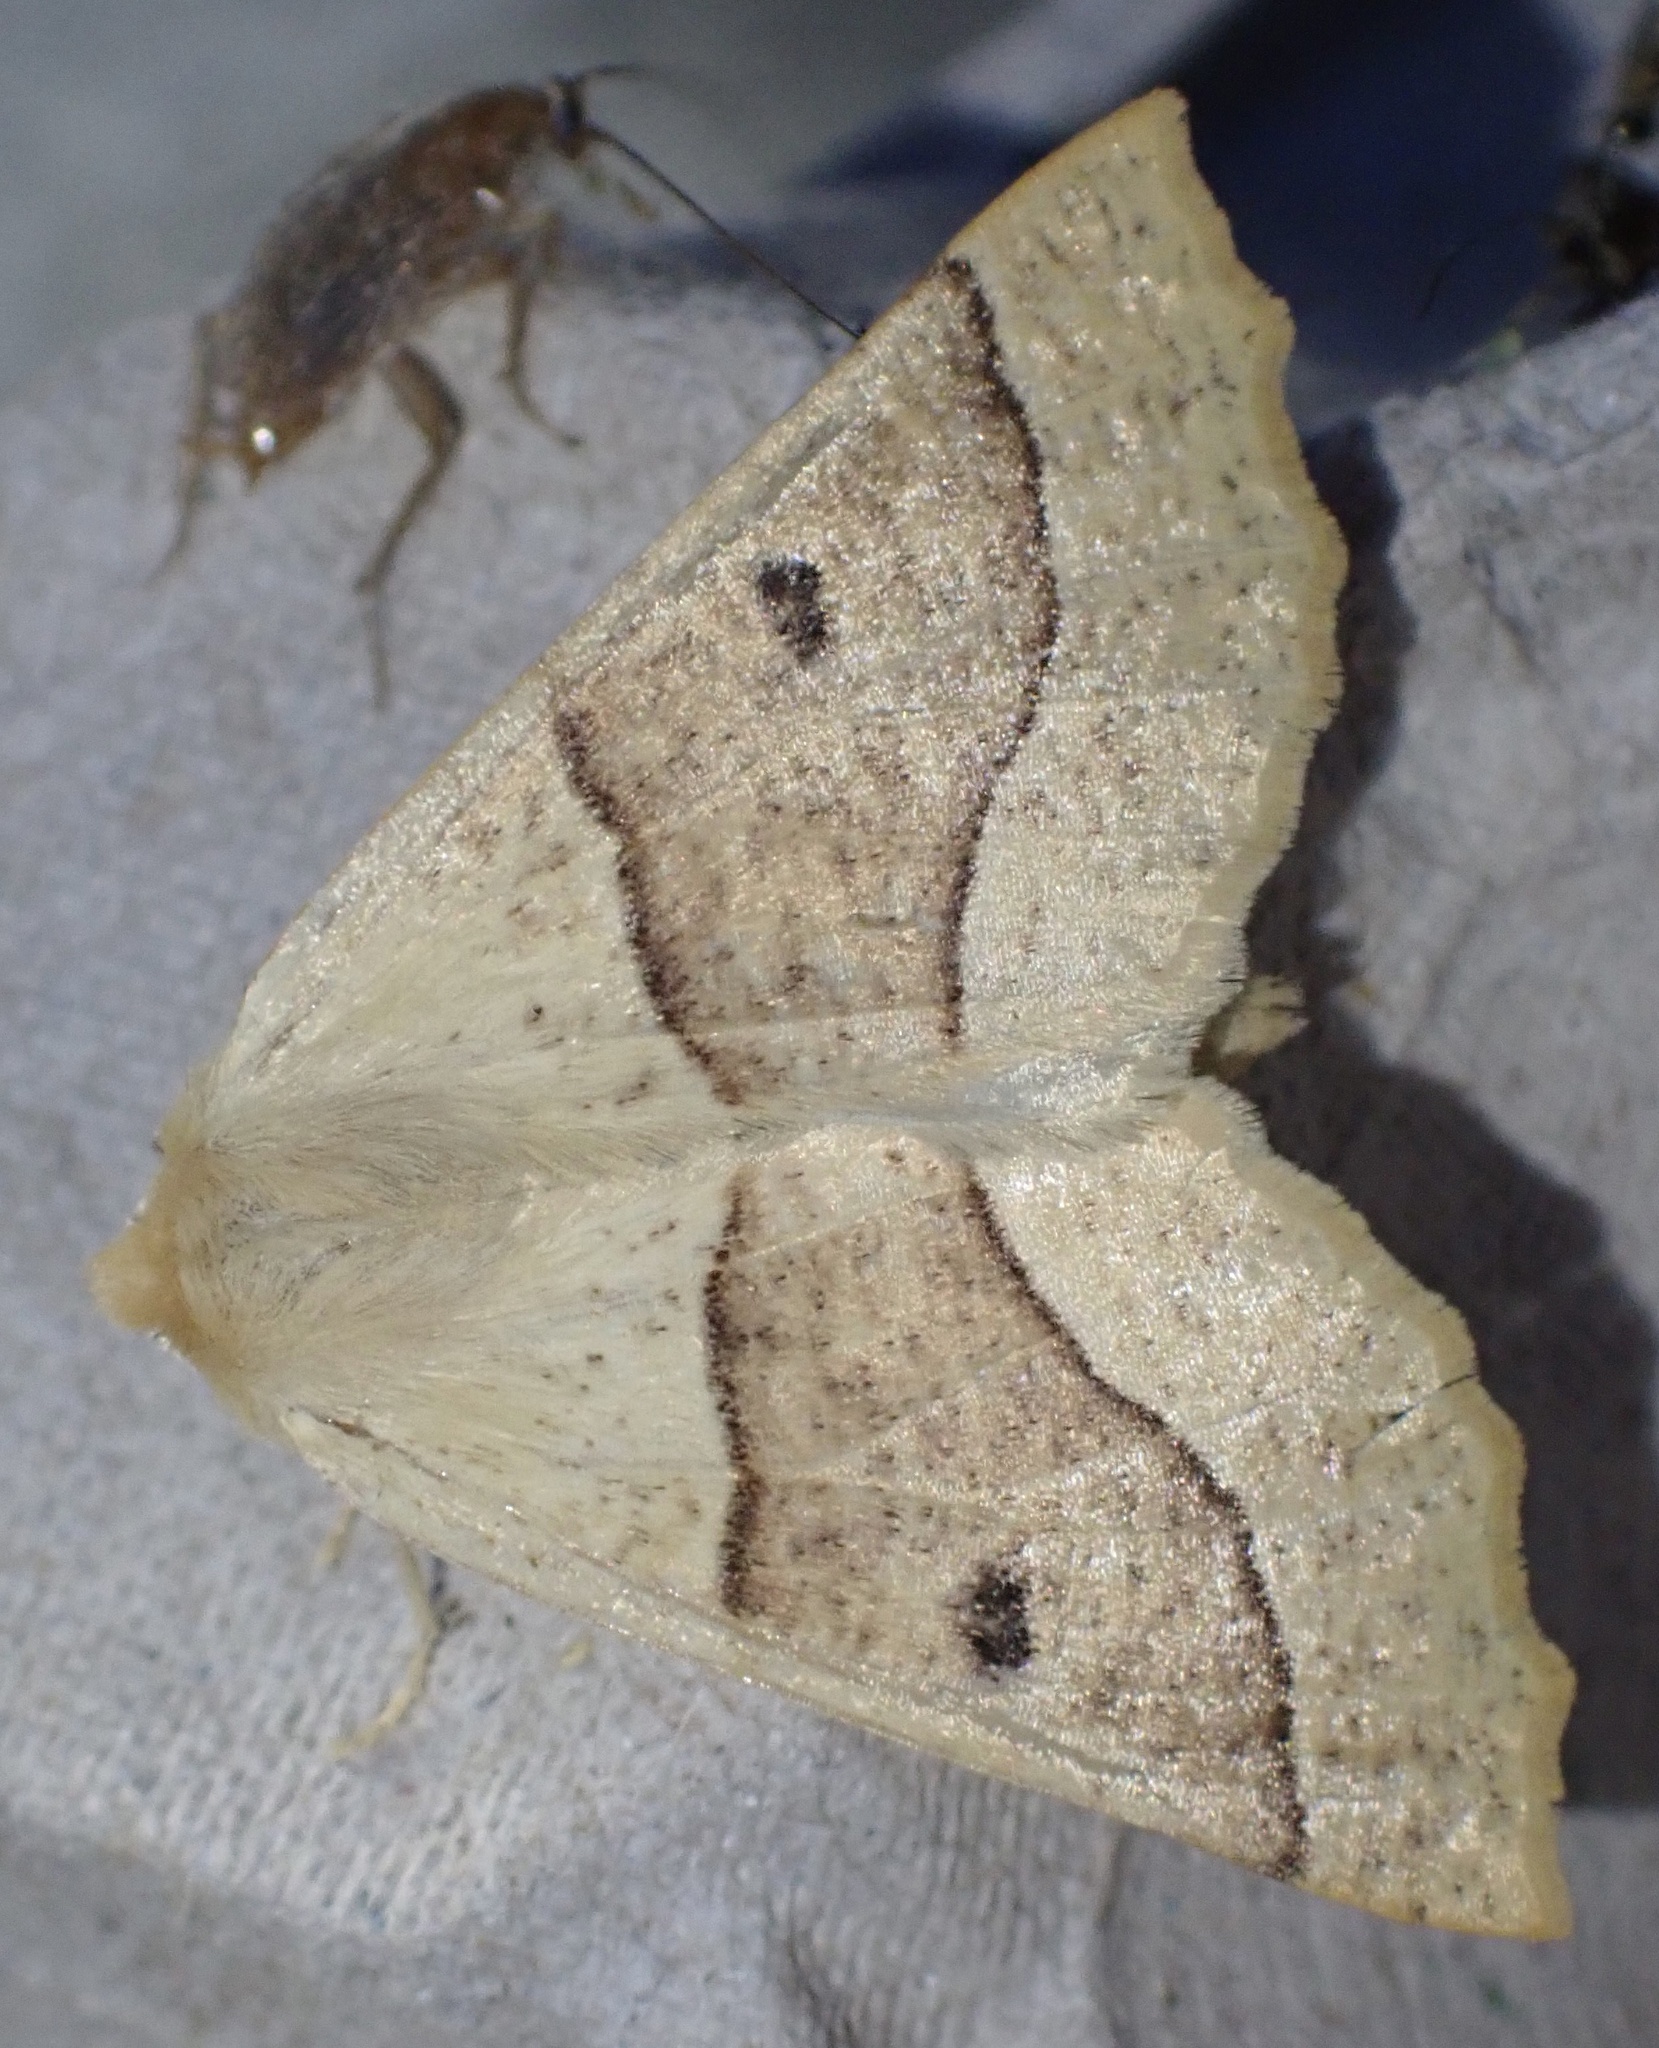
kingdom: Animalia
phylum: Arthropoda
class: Insecta
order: Lepidoptera
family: Geometridae
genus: Crocallis
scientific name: Crocallis elinguaria
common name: Scalloped oak
